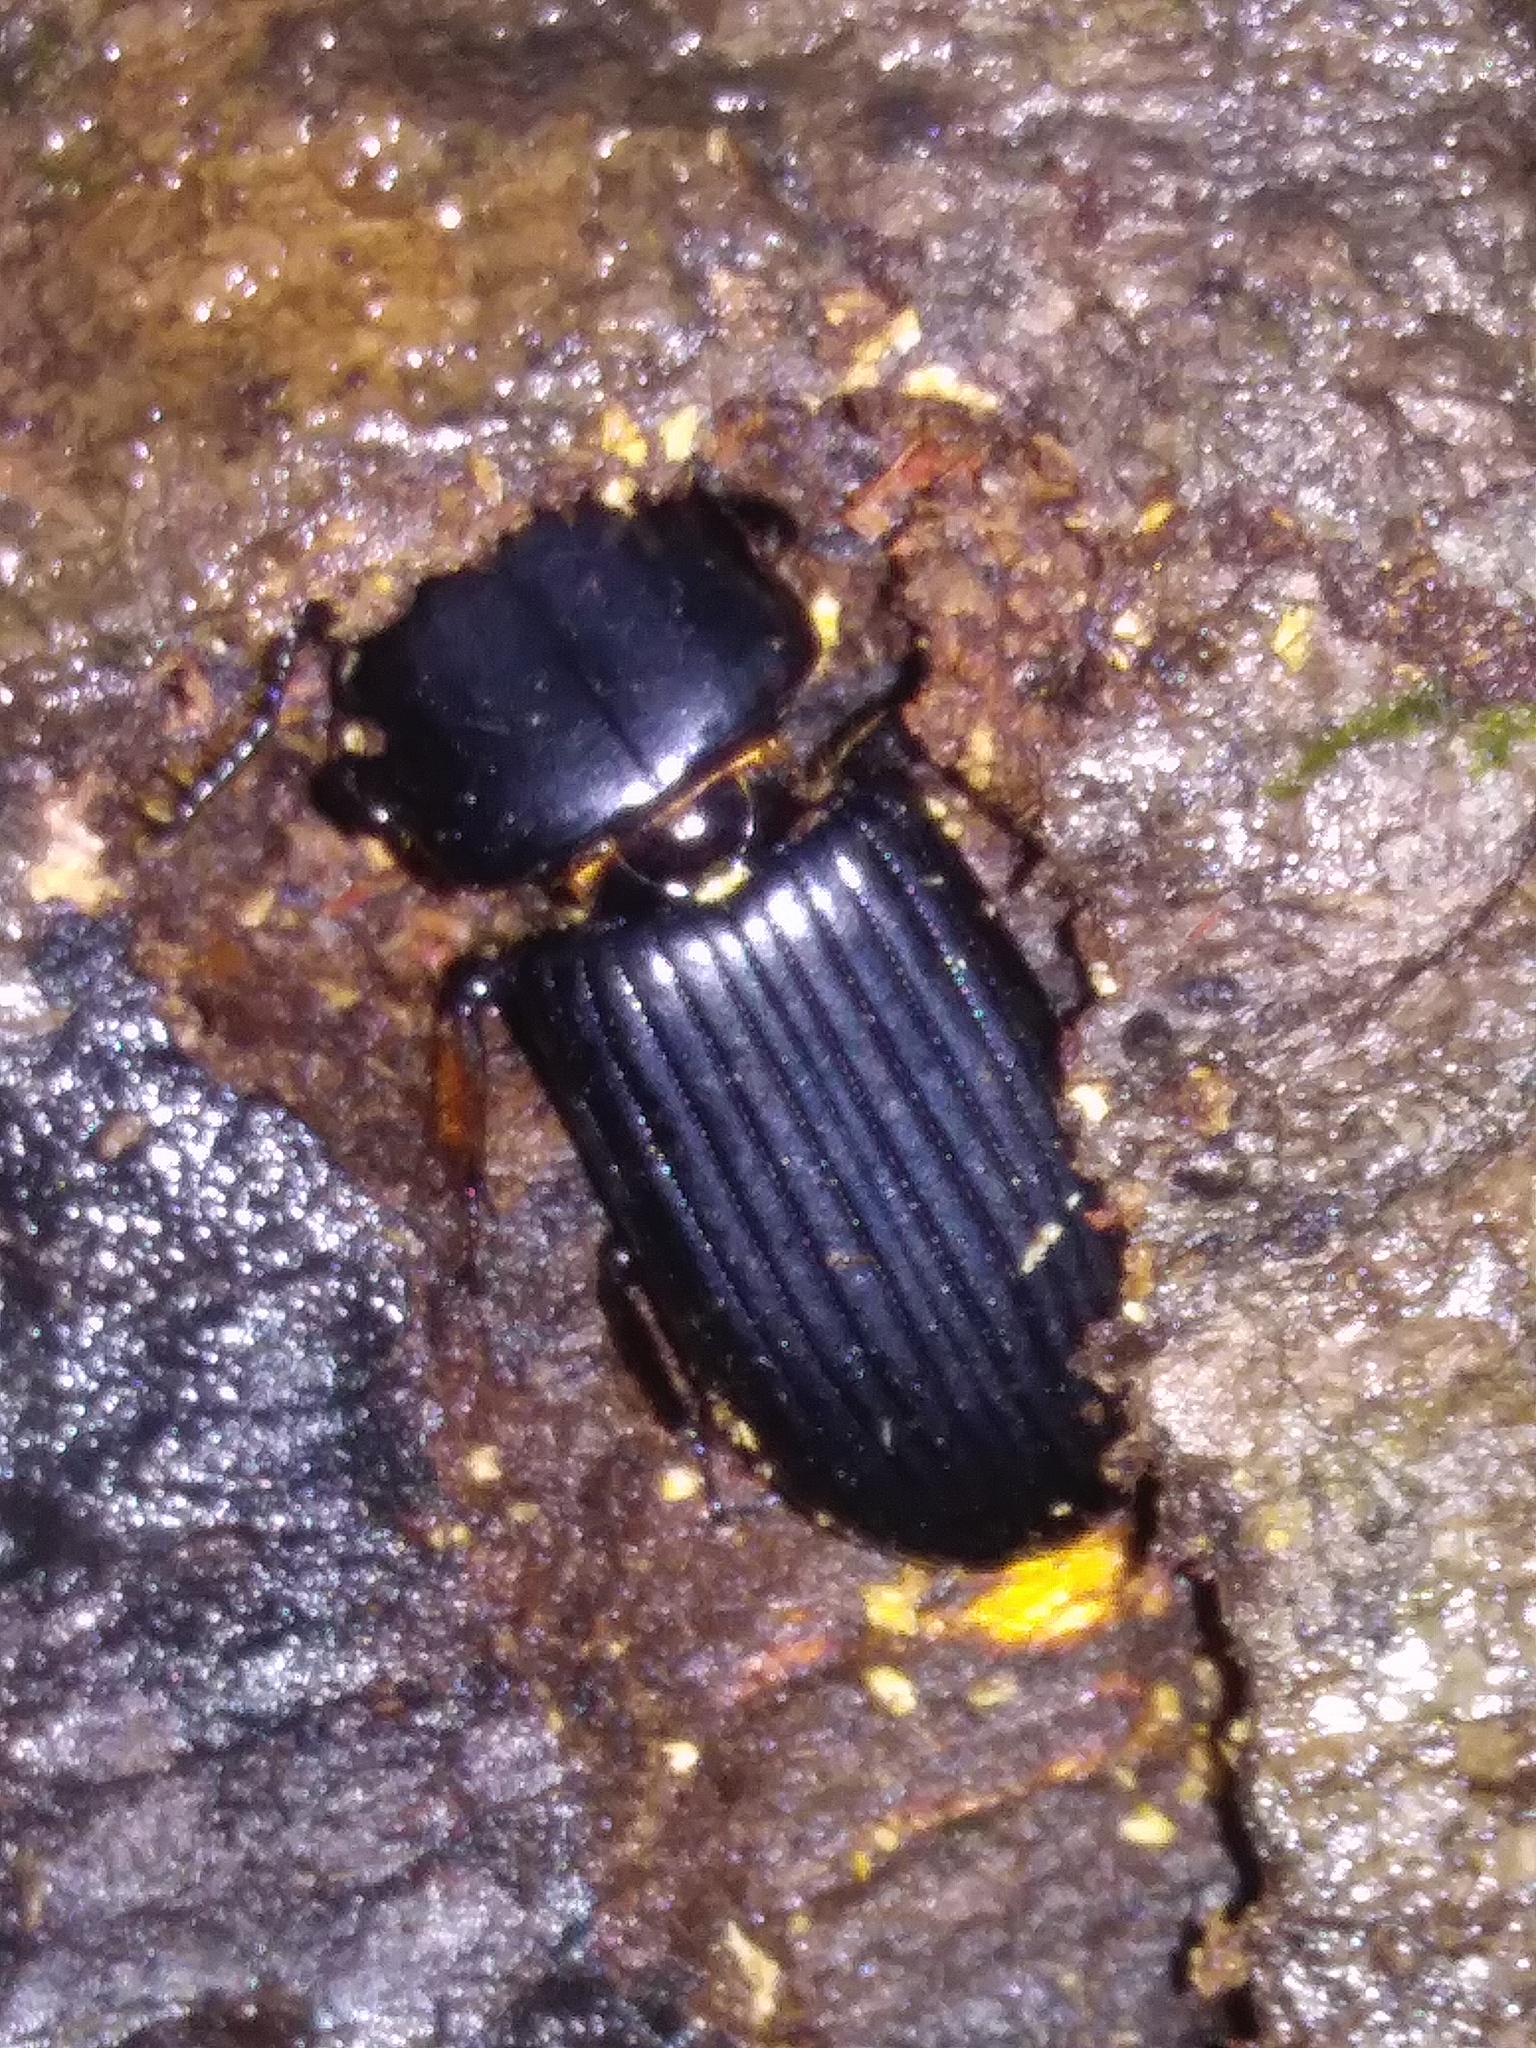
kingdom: Animalia
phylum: Arthropoda
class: Insecta
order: Coleoptera
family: Passalidae
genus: Odontotaenius
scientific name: Odontotaenius disjunctus
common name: Patent leather beetle
